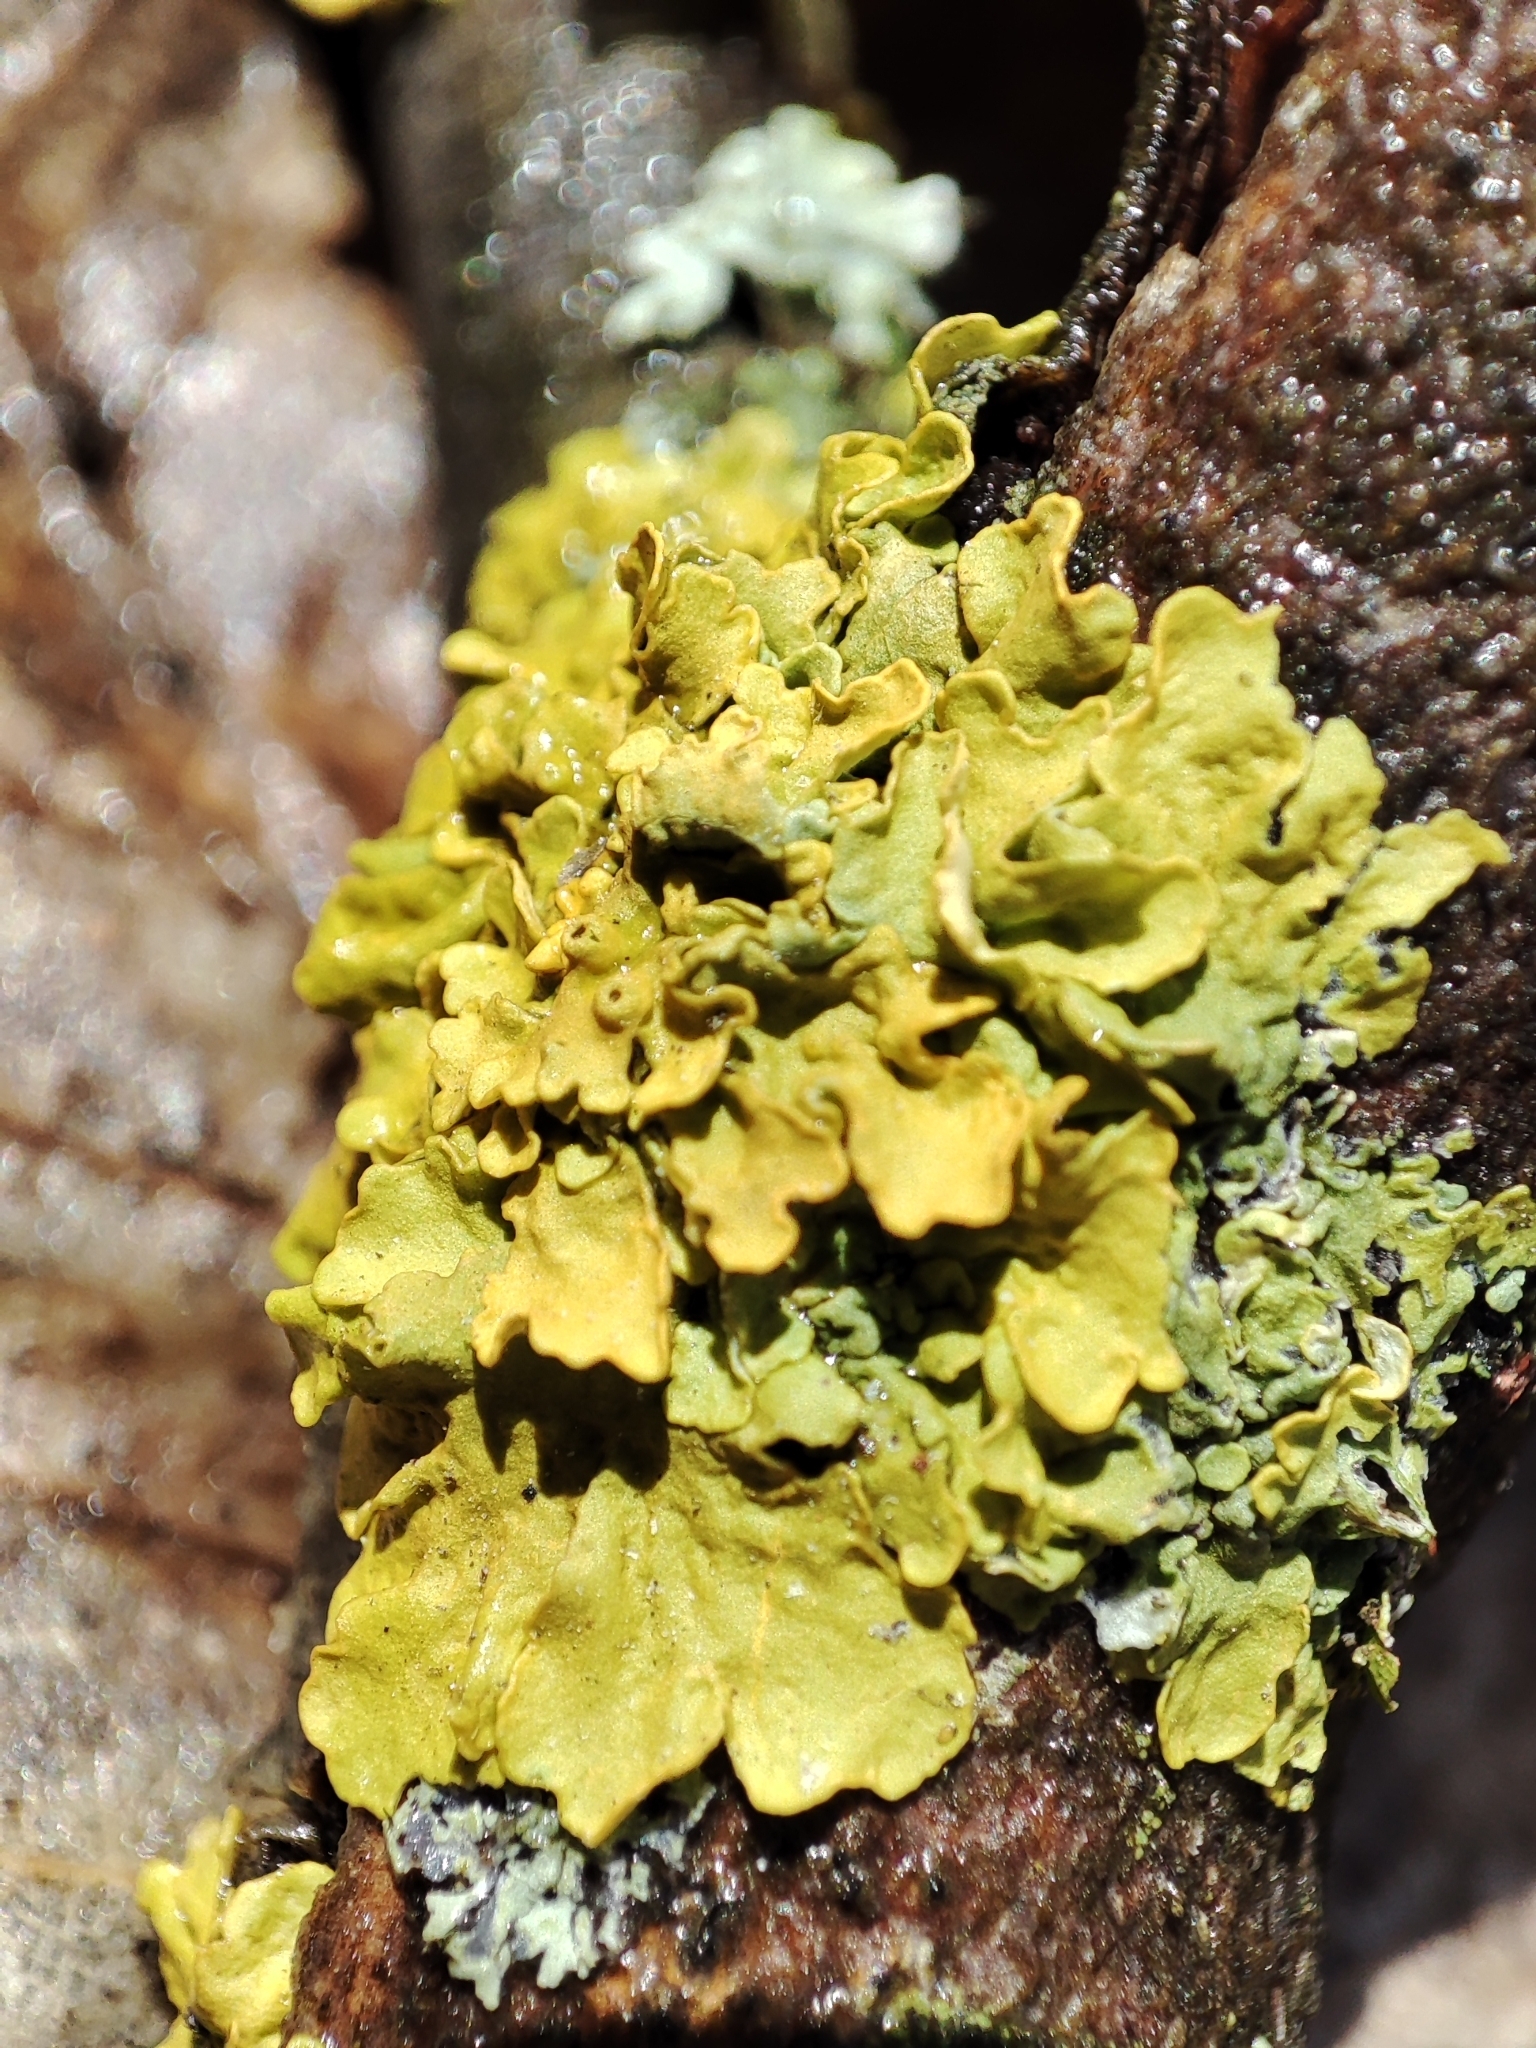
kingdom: Fungi
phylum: Ascomycota
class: Lecanoromycetes
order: Teloschistales
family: Teloschistaceae
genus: Xanthoria
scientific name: Xanthoria parietina
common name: Common orange lichen
